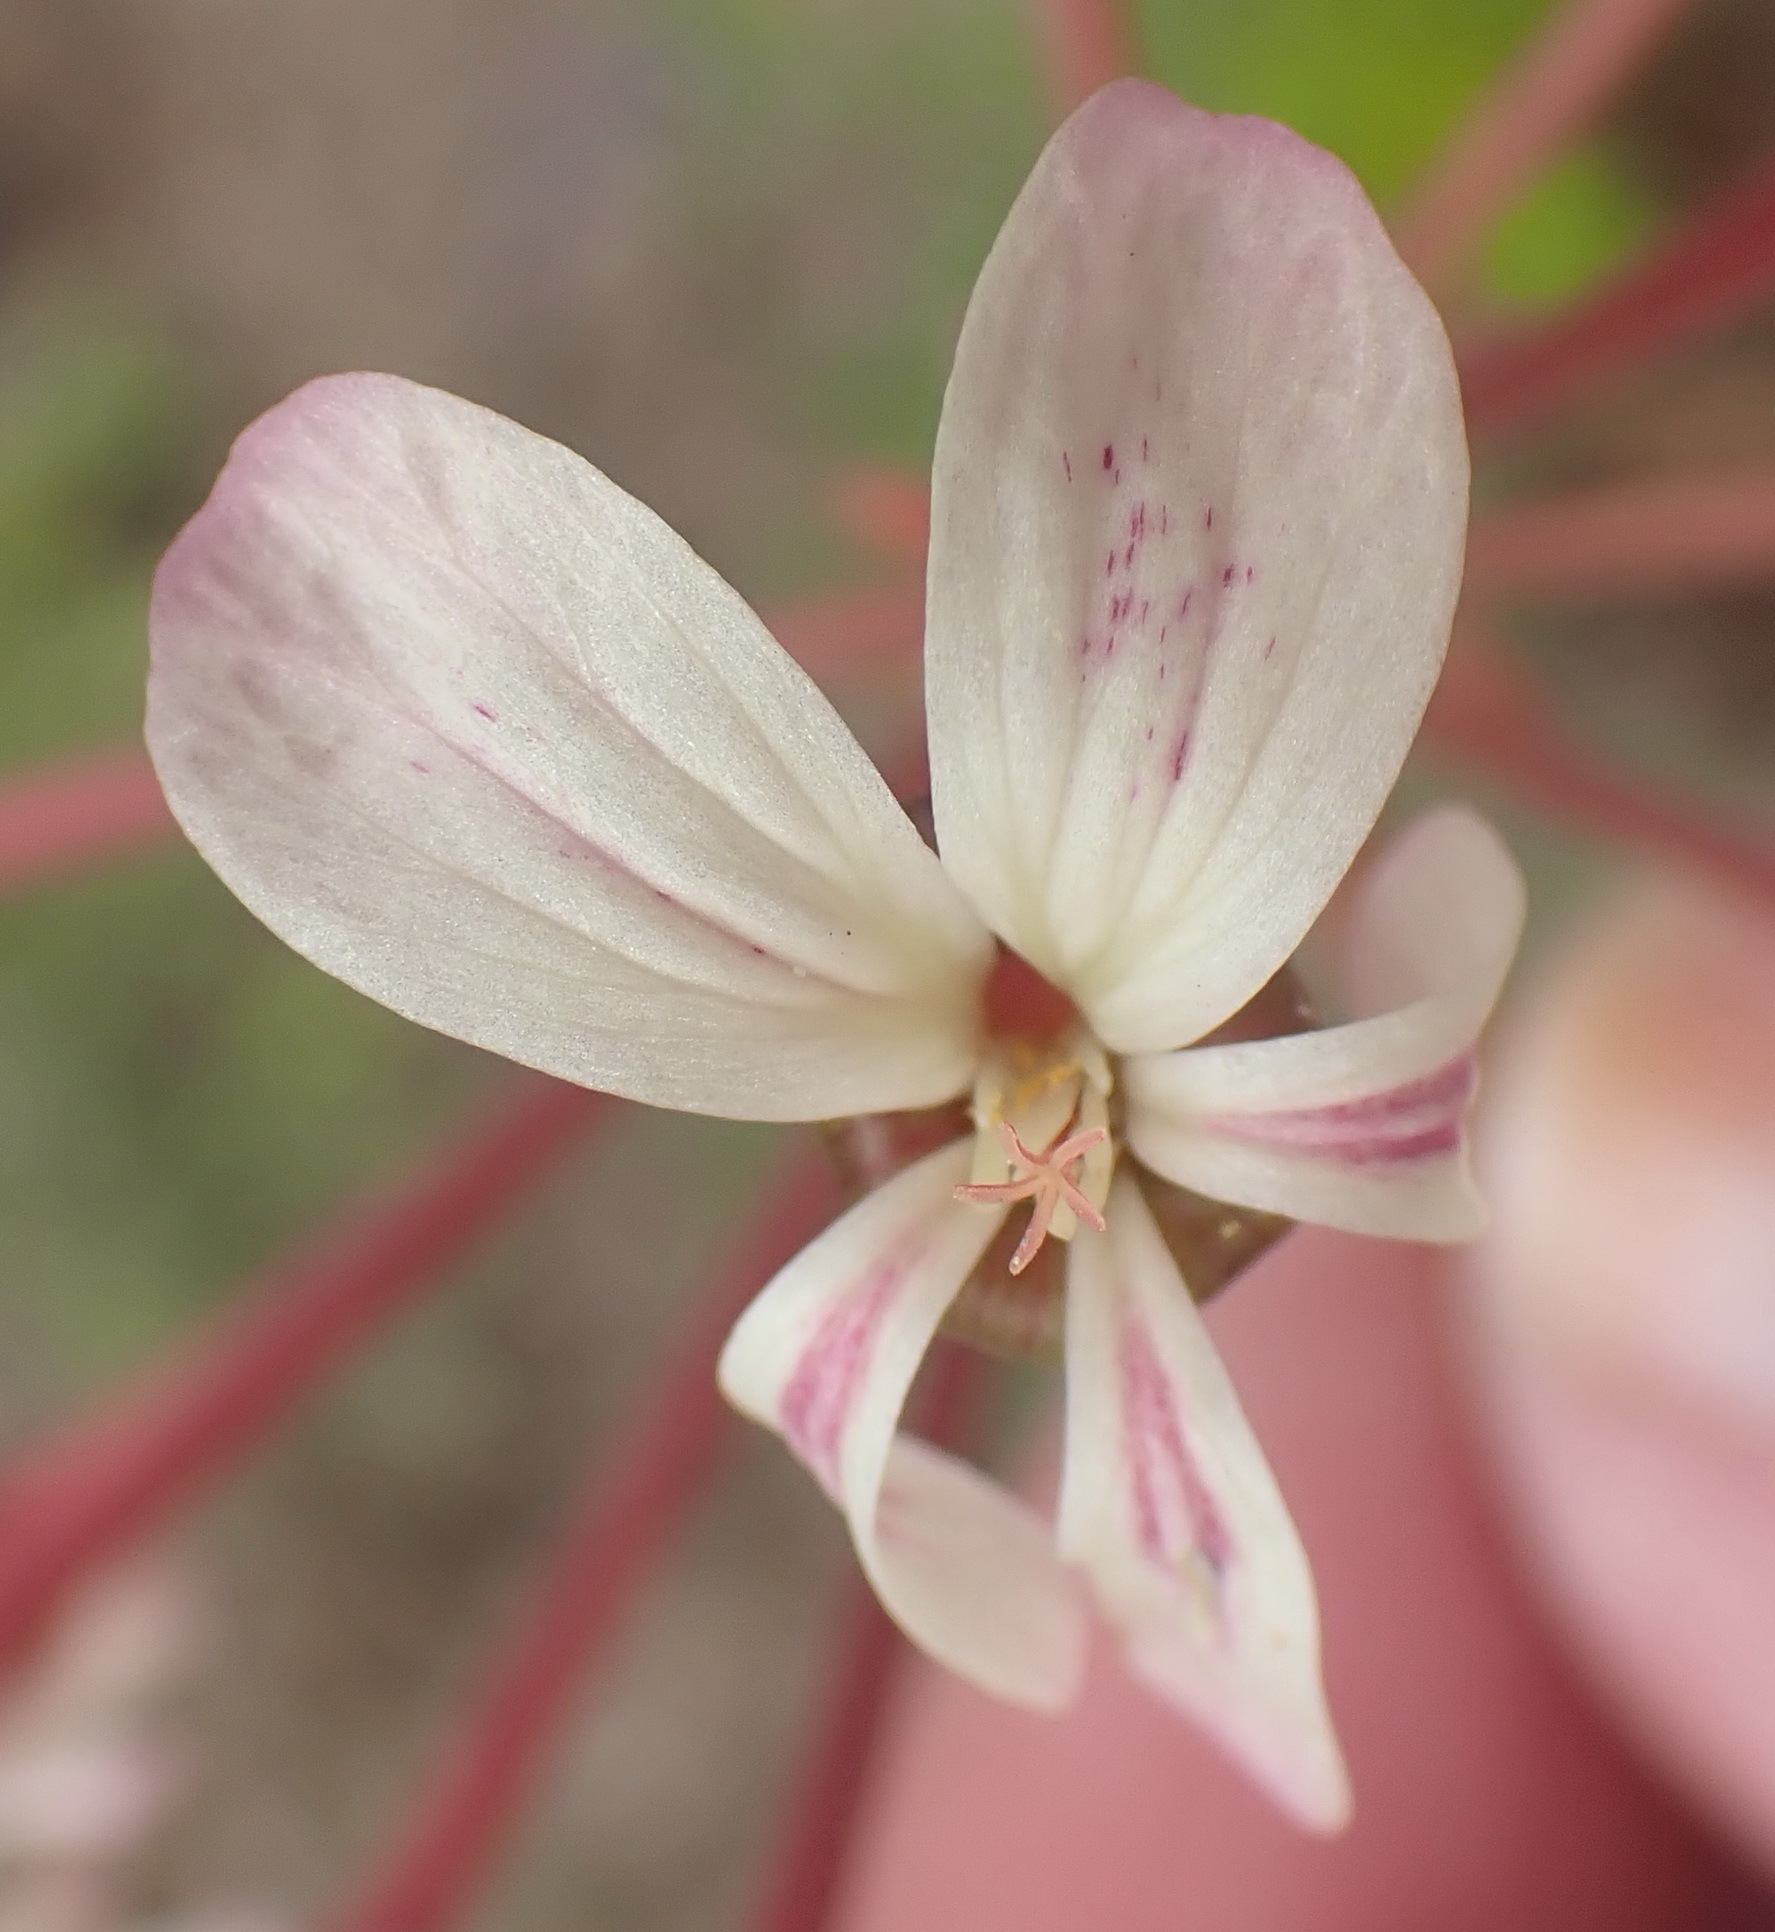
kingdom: Plantae
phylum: Tracheophyta
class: Magnoliopsida
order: Geraniales
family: Geraniaceae
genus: Pelargonium
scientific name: Pelargonium triste
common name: Night-scent pelargonium
